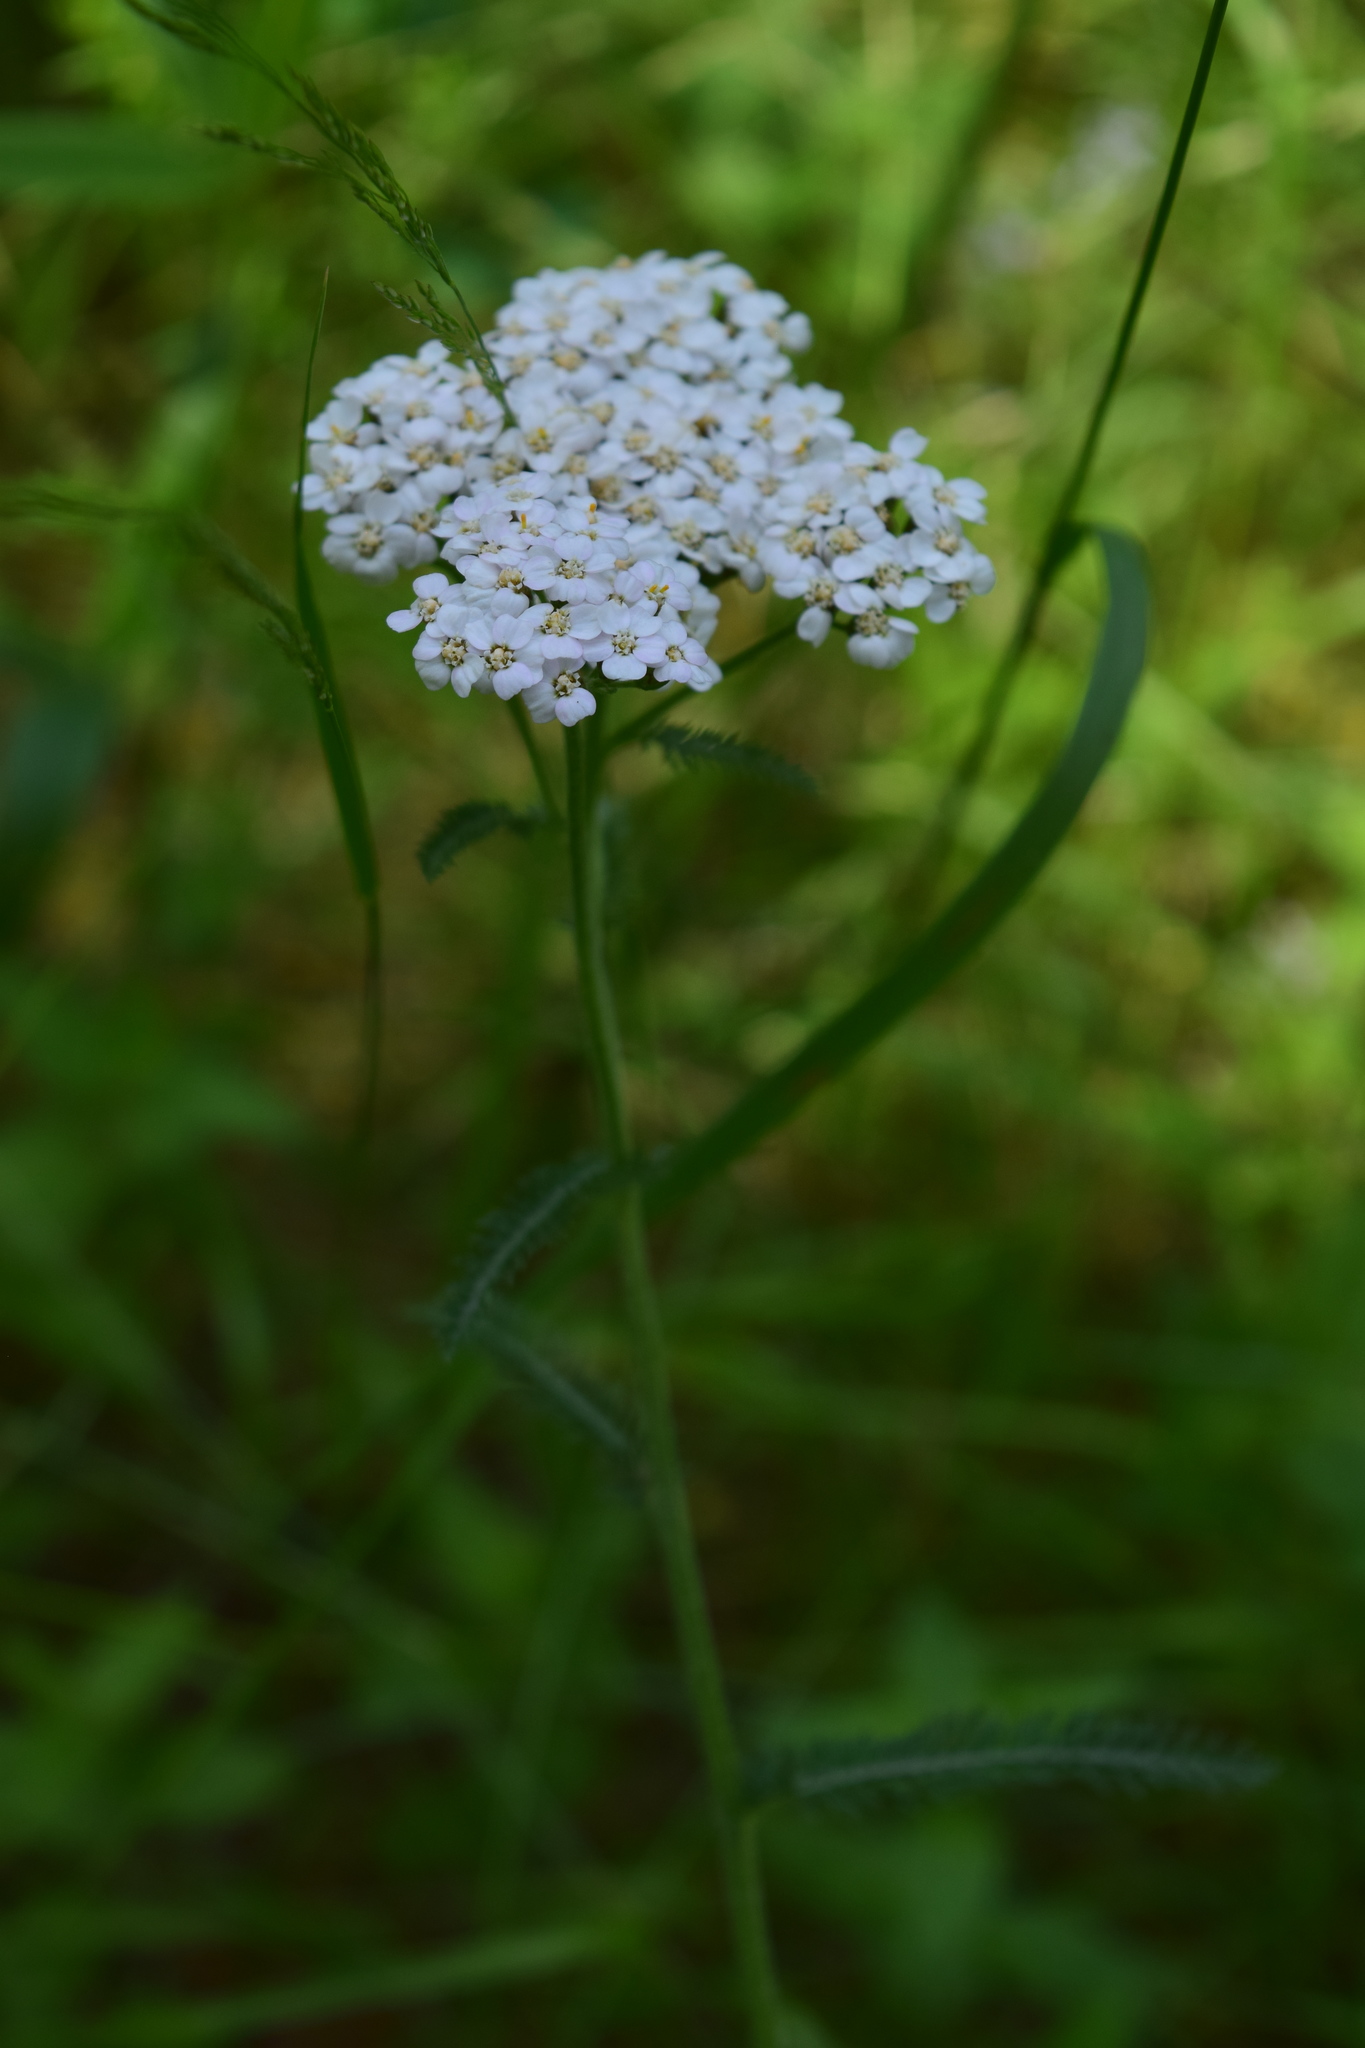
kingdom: Plantae
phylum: Tracheophyta
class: Magnoliopsida
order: Asterales
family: Asteraceae
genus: Achillea
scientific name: Achillea millefolium
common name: Yarrow
